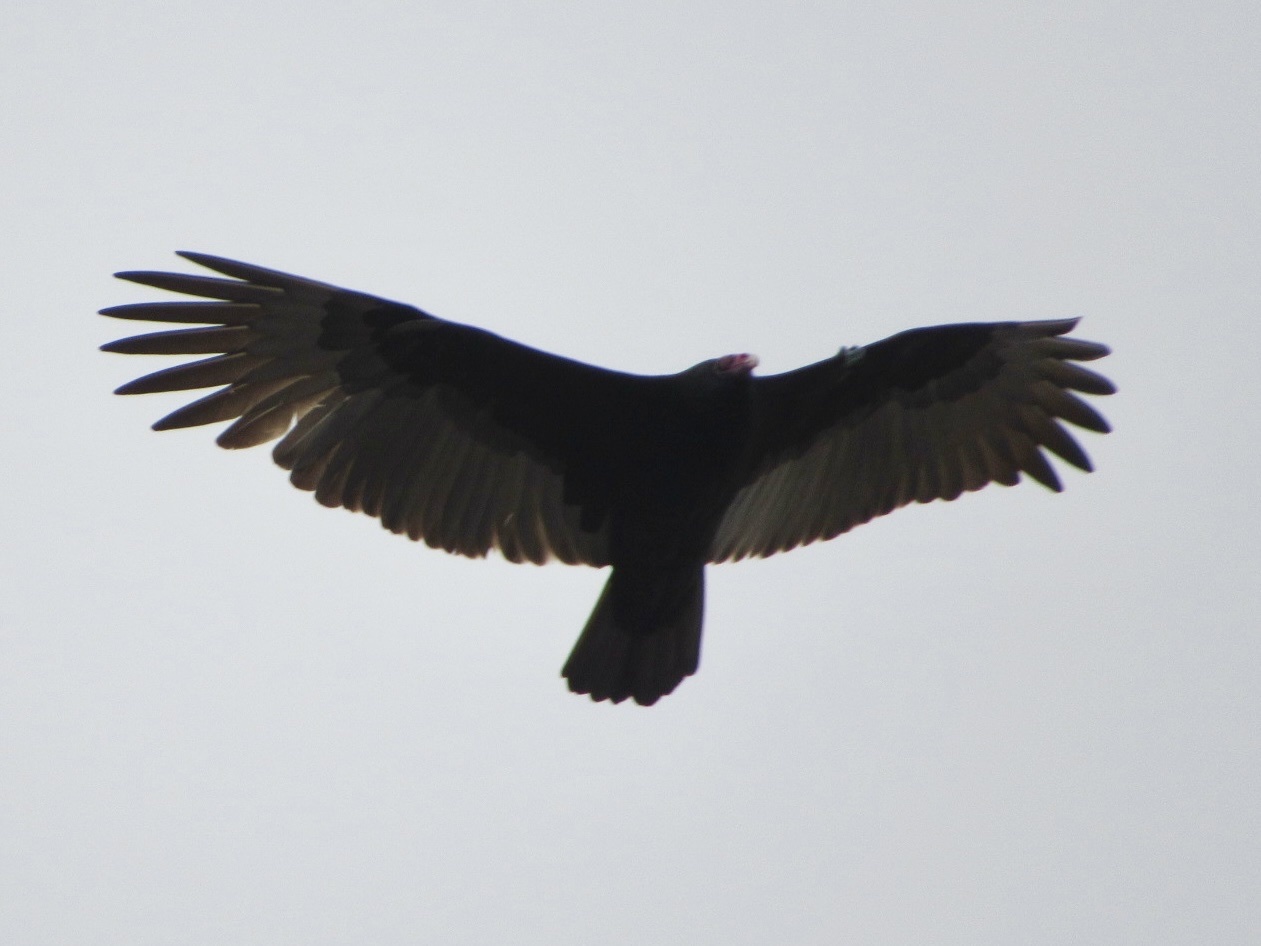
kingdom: Animalia
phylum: Chordata
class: Aves
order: Accipitriformes
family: Cathartidae
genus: Cathartes
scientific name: Cathartes aura
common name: Turkey vulture
